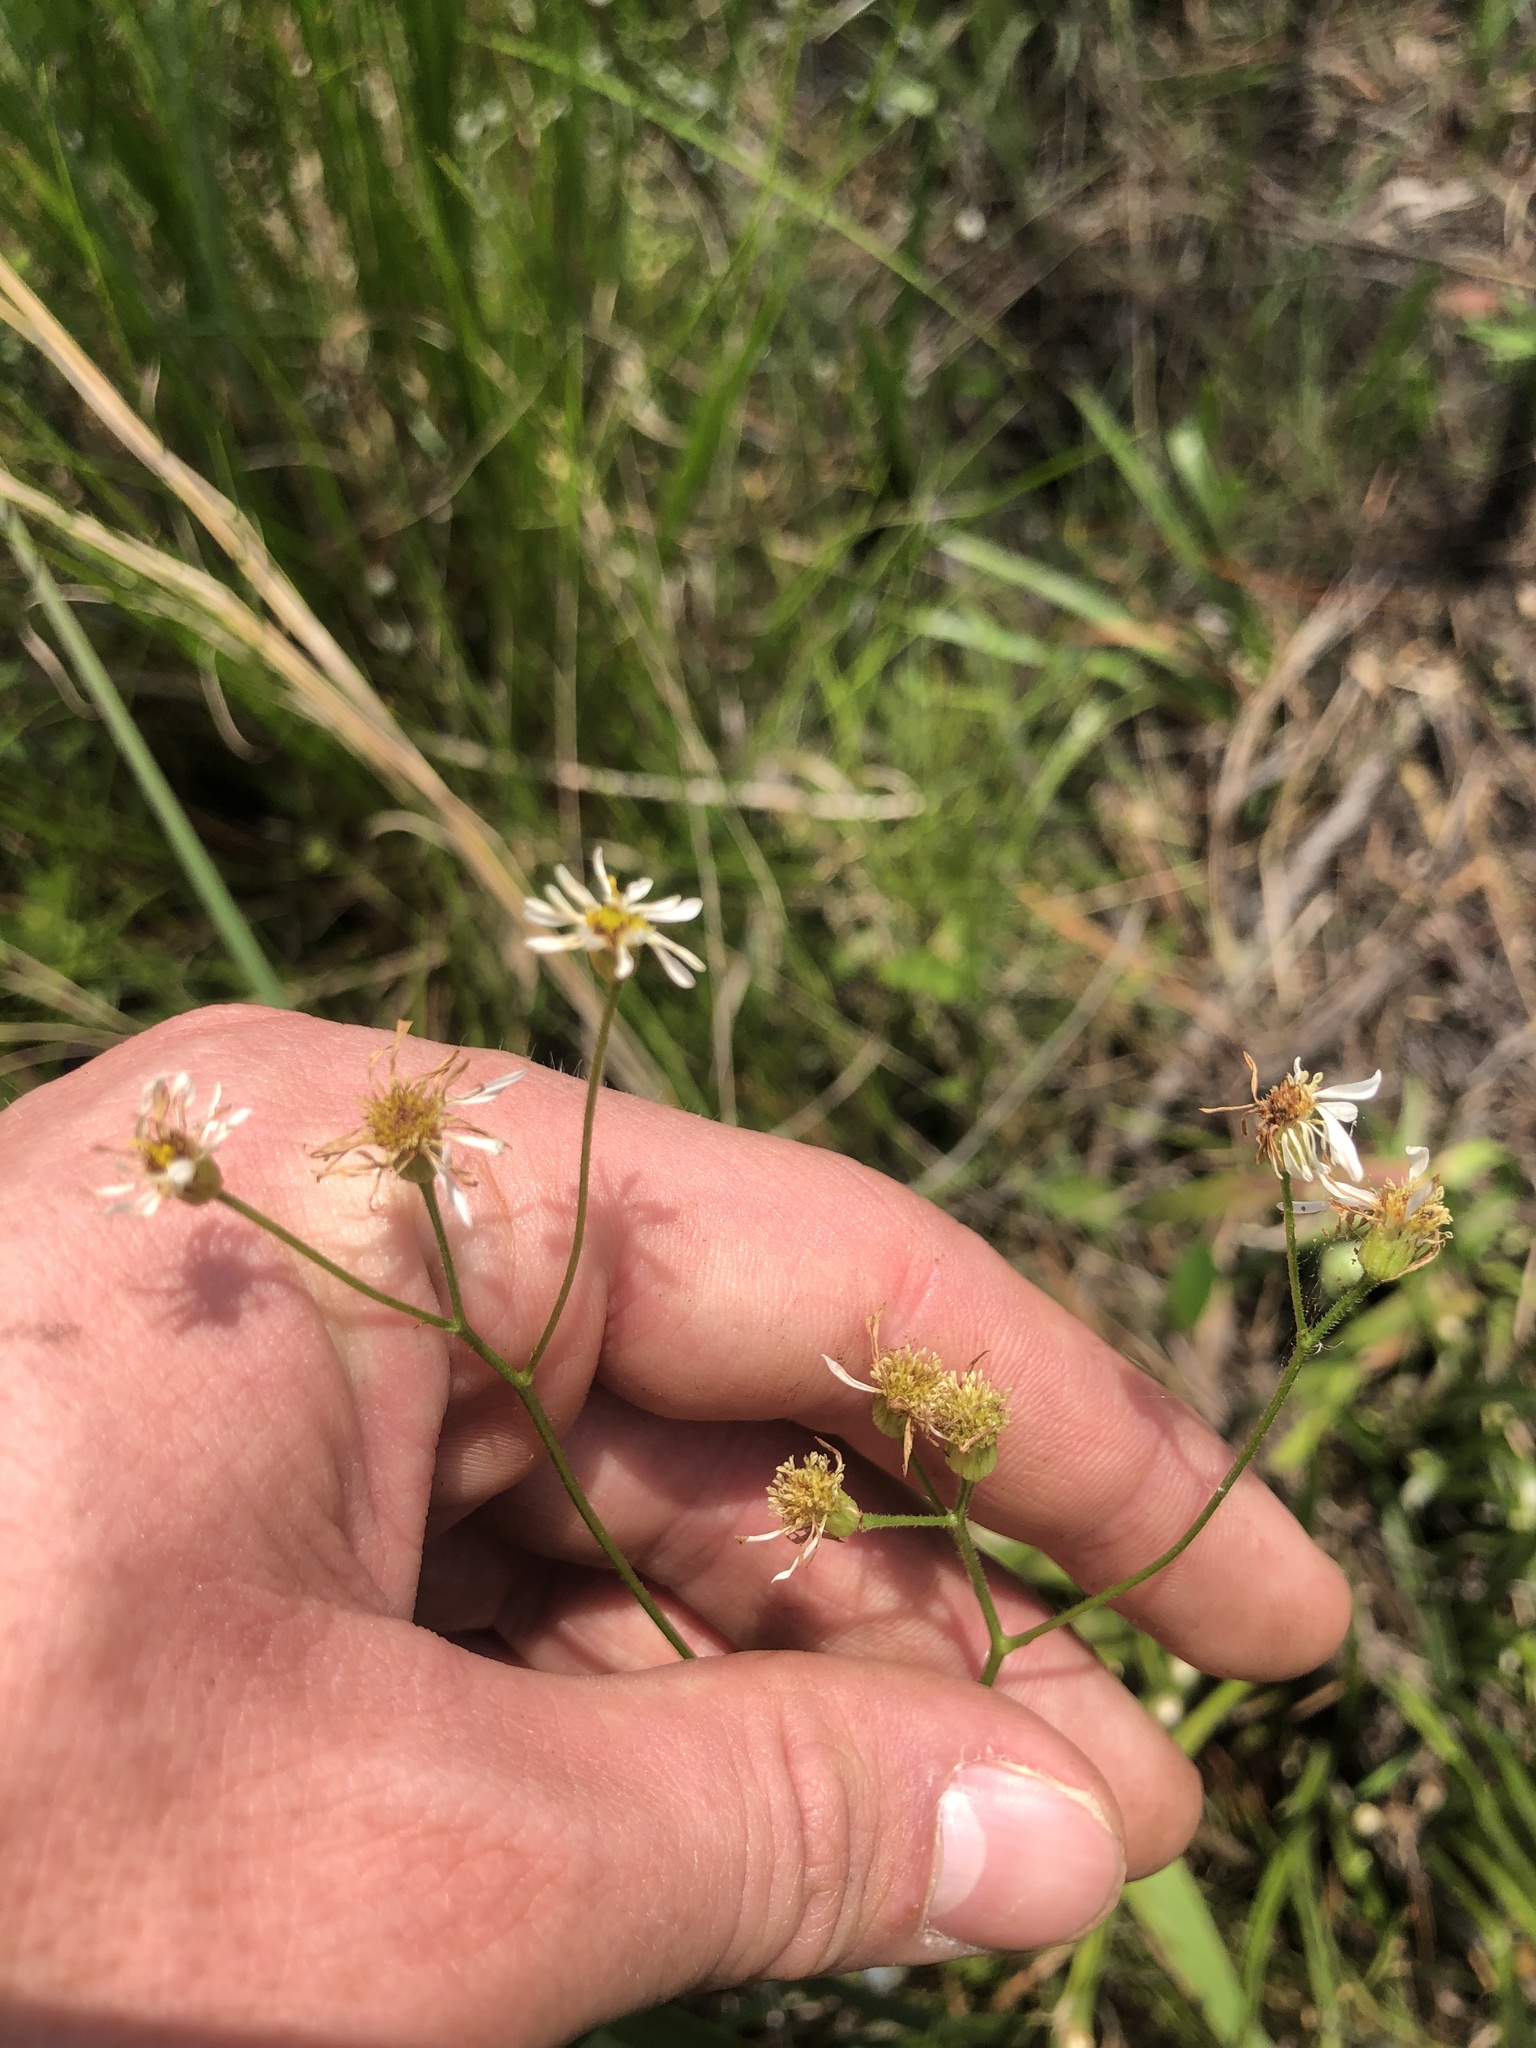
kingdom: Plantae
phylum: Tracheophyta
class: Magnoliopsida
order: Asterales
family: Asteraceae
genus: Erigeron
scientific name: Erigeron vernus
